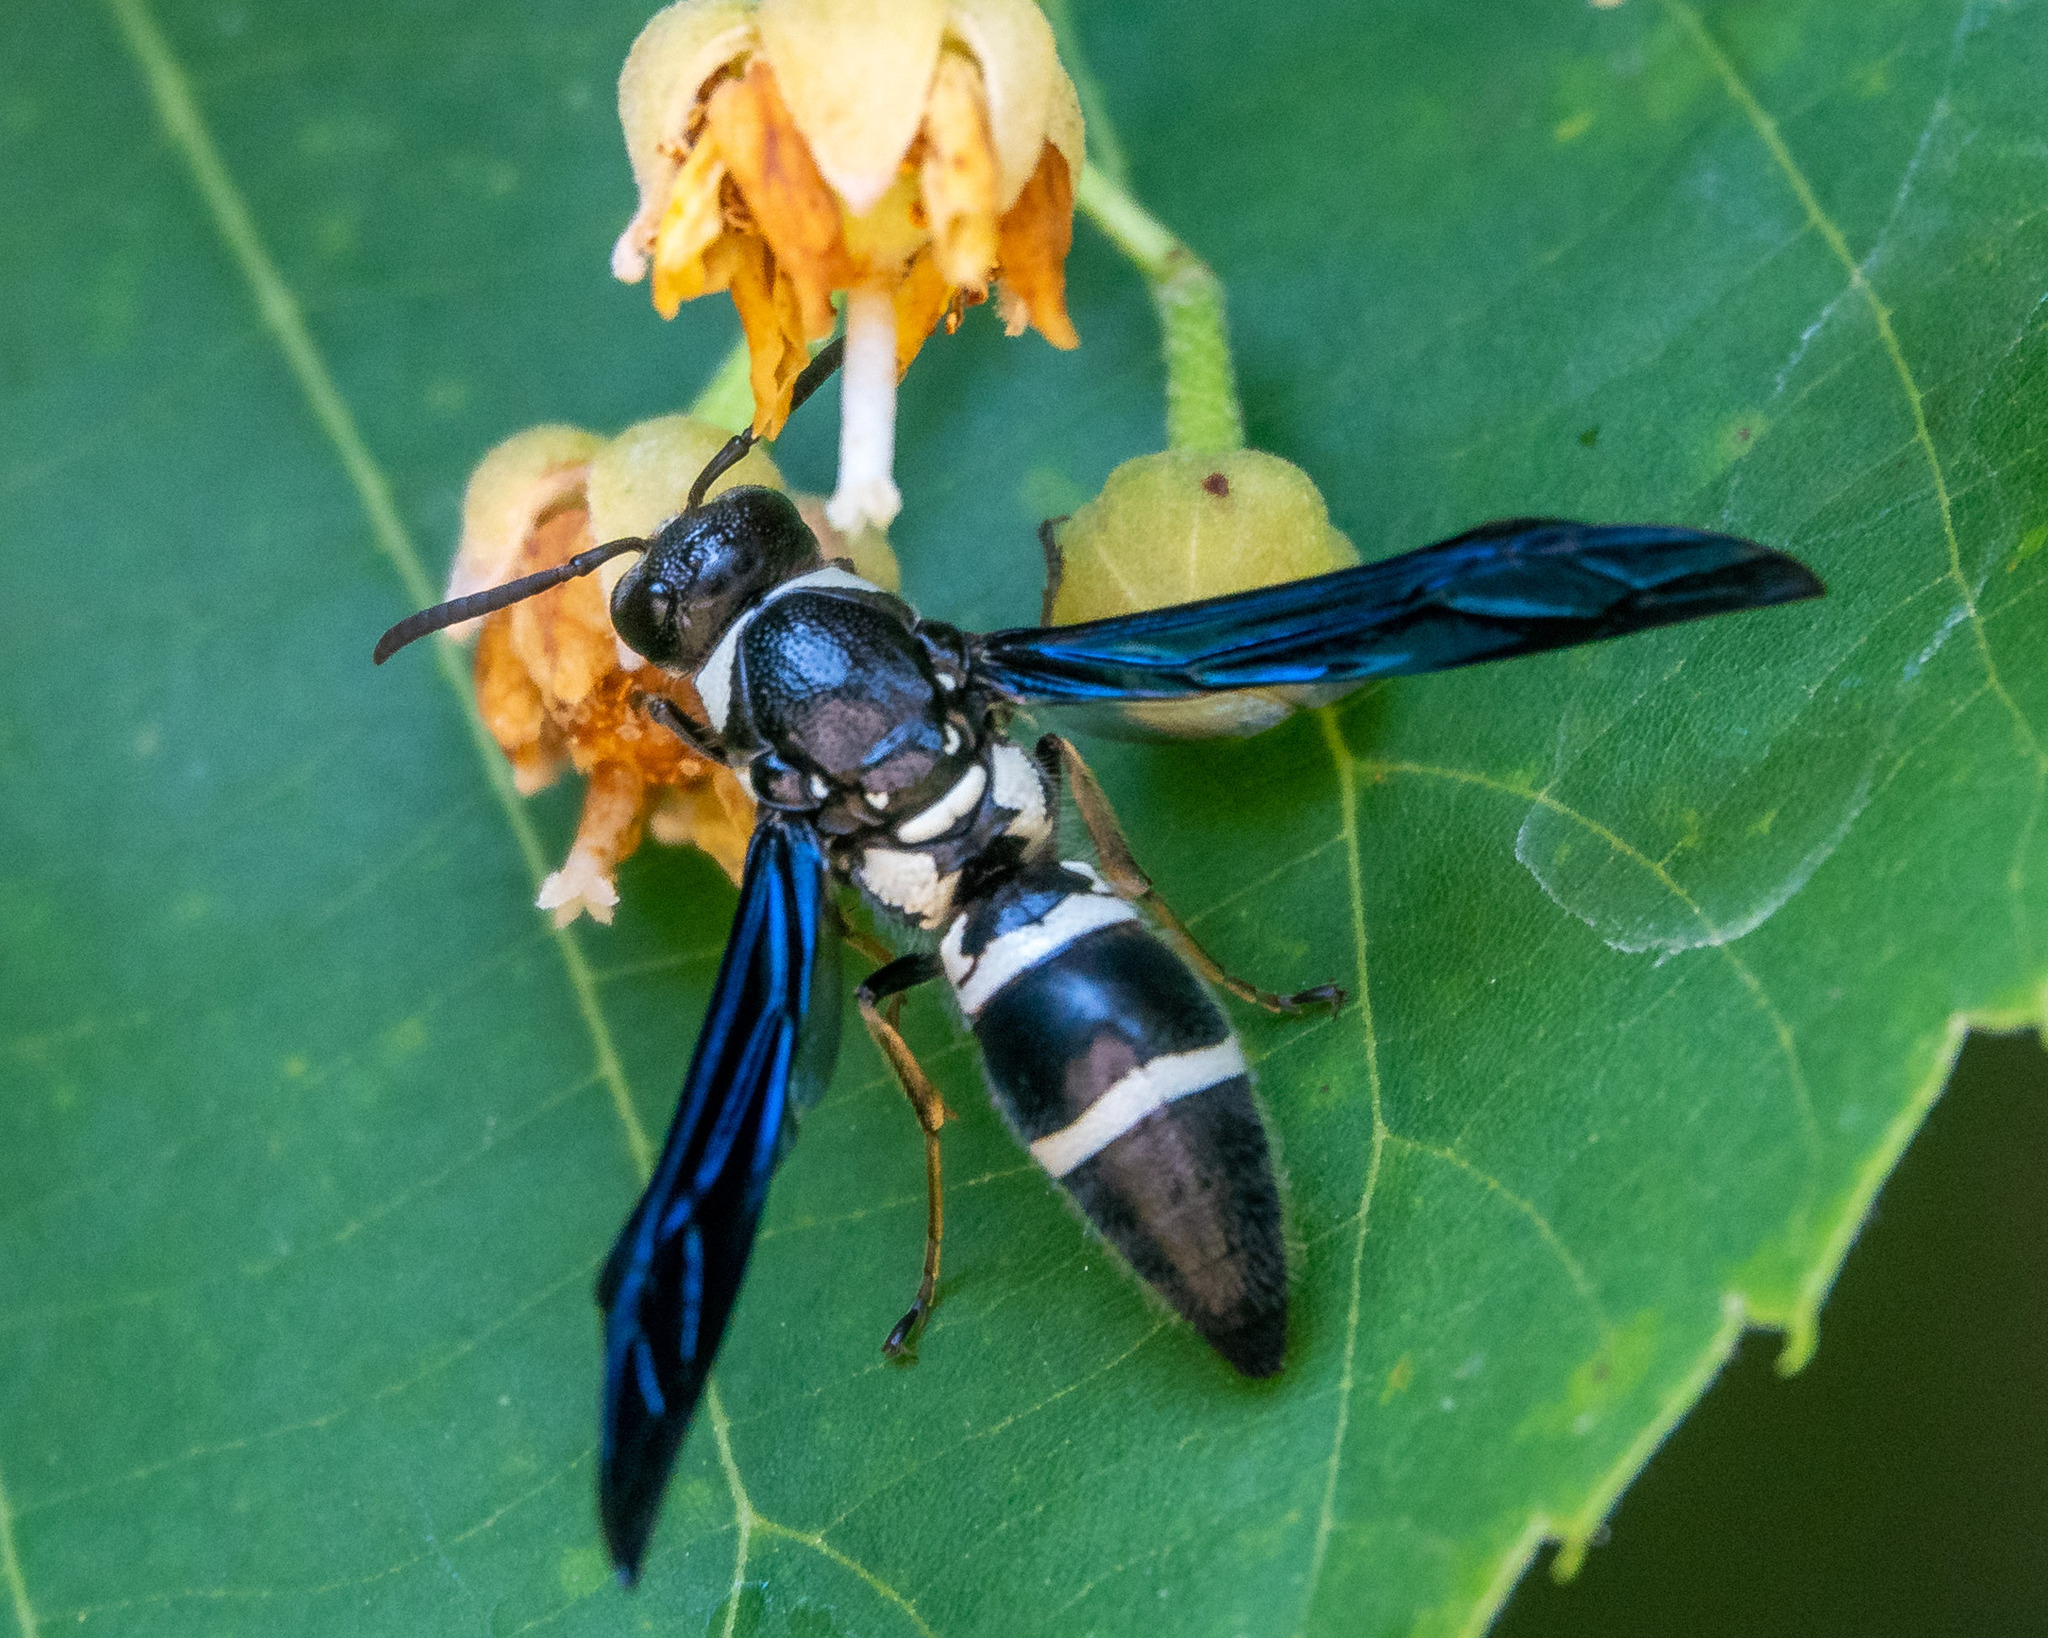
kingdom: Animalia
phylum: Arthropoda
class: Insecta
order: Hymenoptera
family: Eumenidae
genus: Pseudodynerus
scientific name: Pseudodynerus quadrisectus
